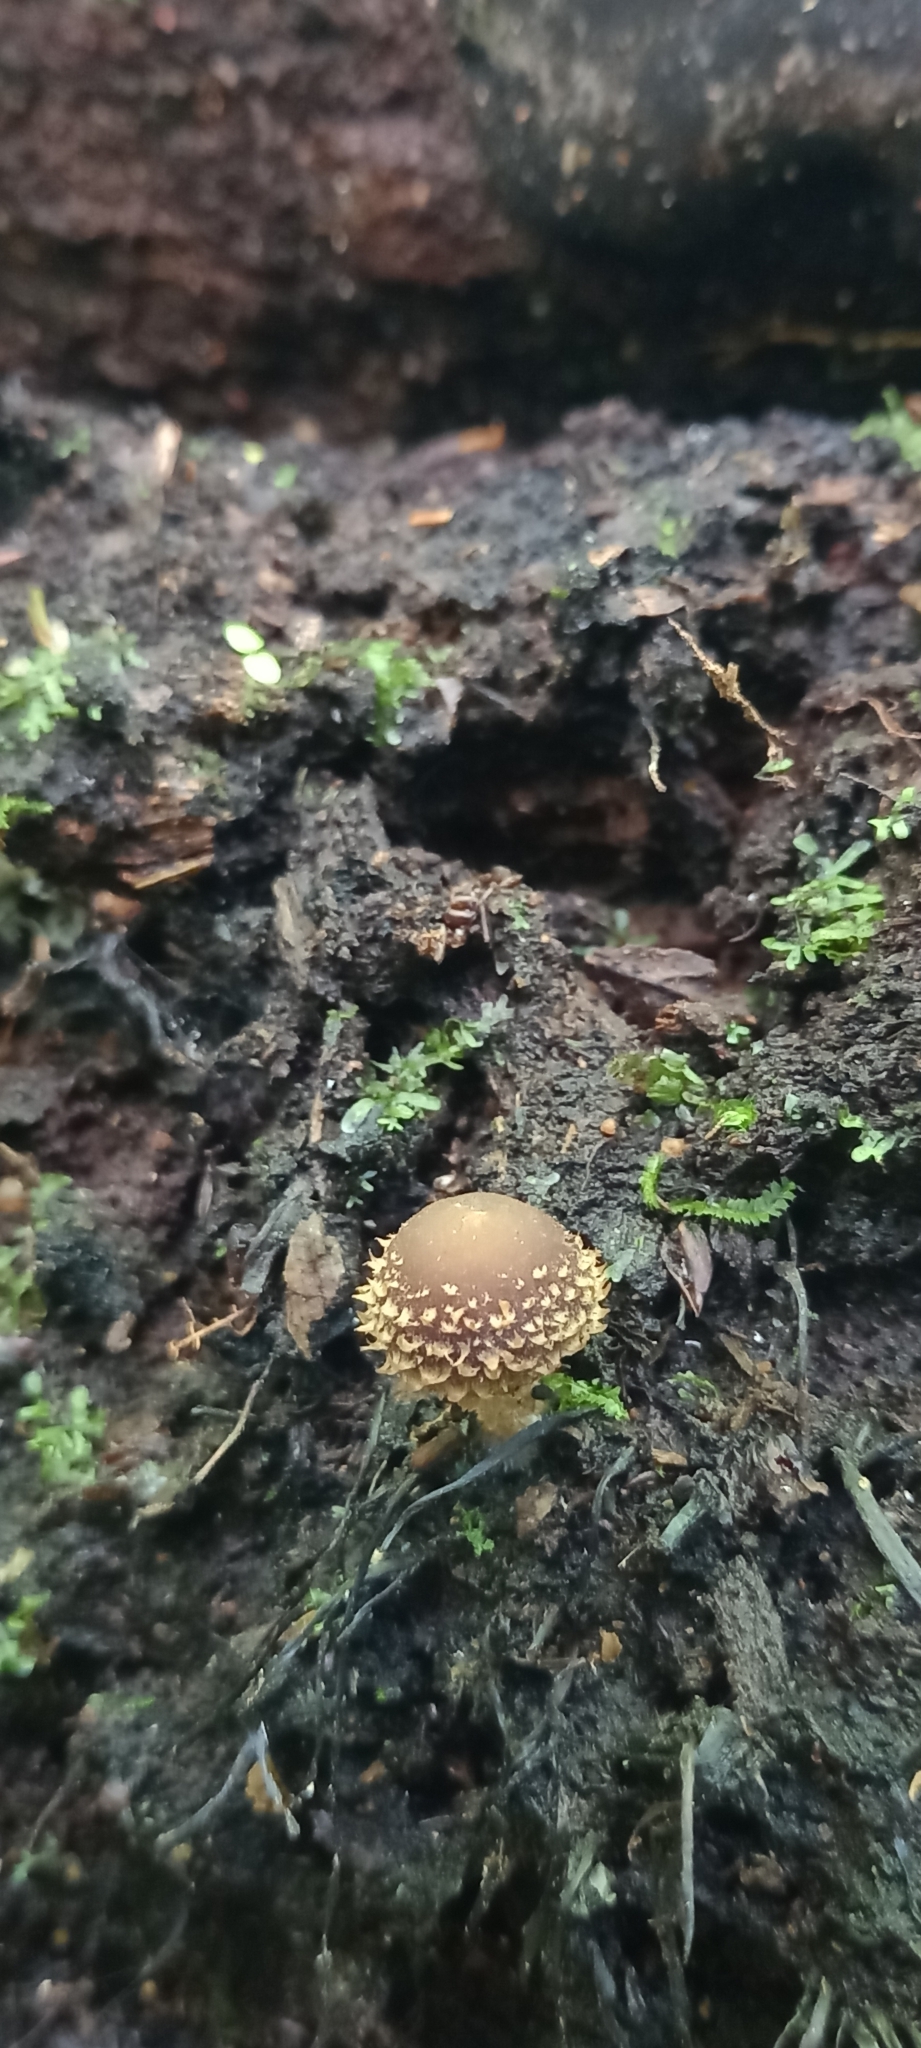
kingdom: Fungi
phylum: Basidiomycota
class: Agaricomycetes
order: Agaricales
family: Psathyrellaceae
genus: Psathyrella
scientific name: Psathyrella echinata
